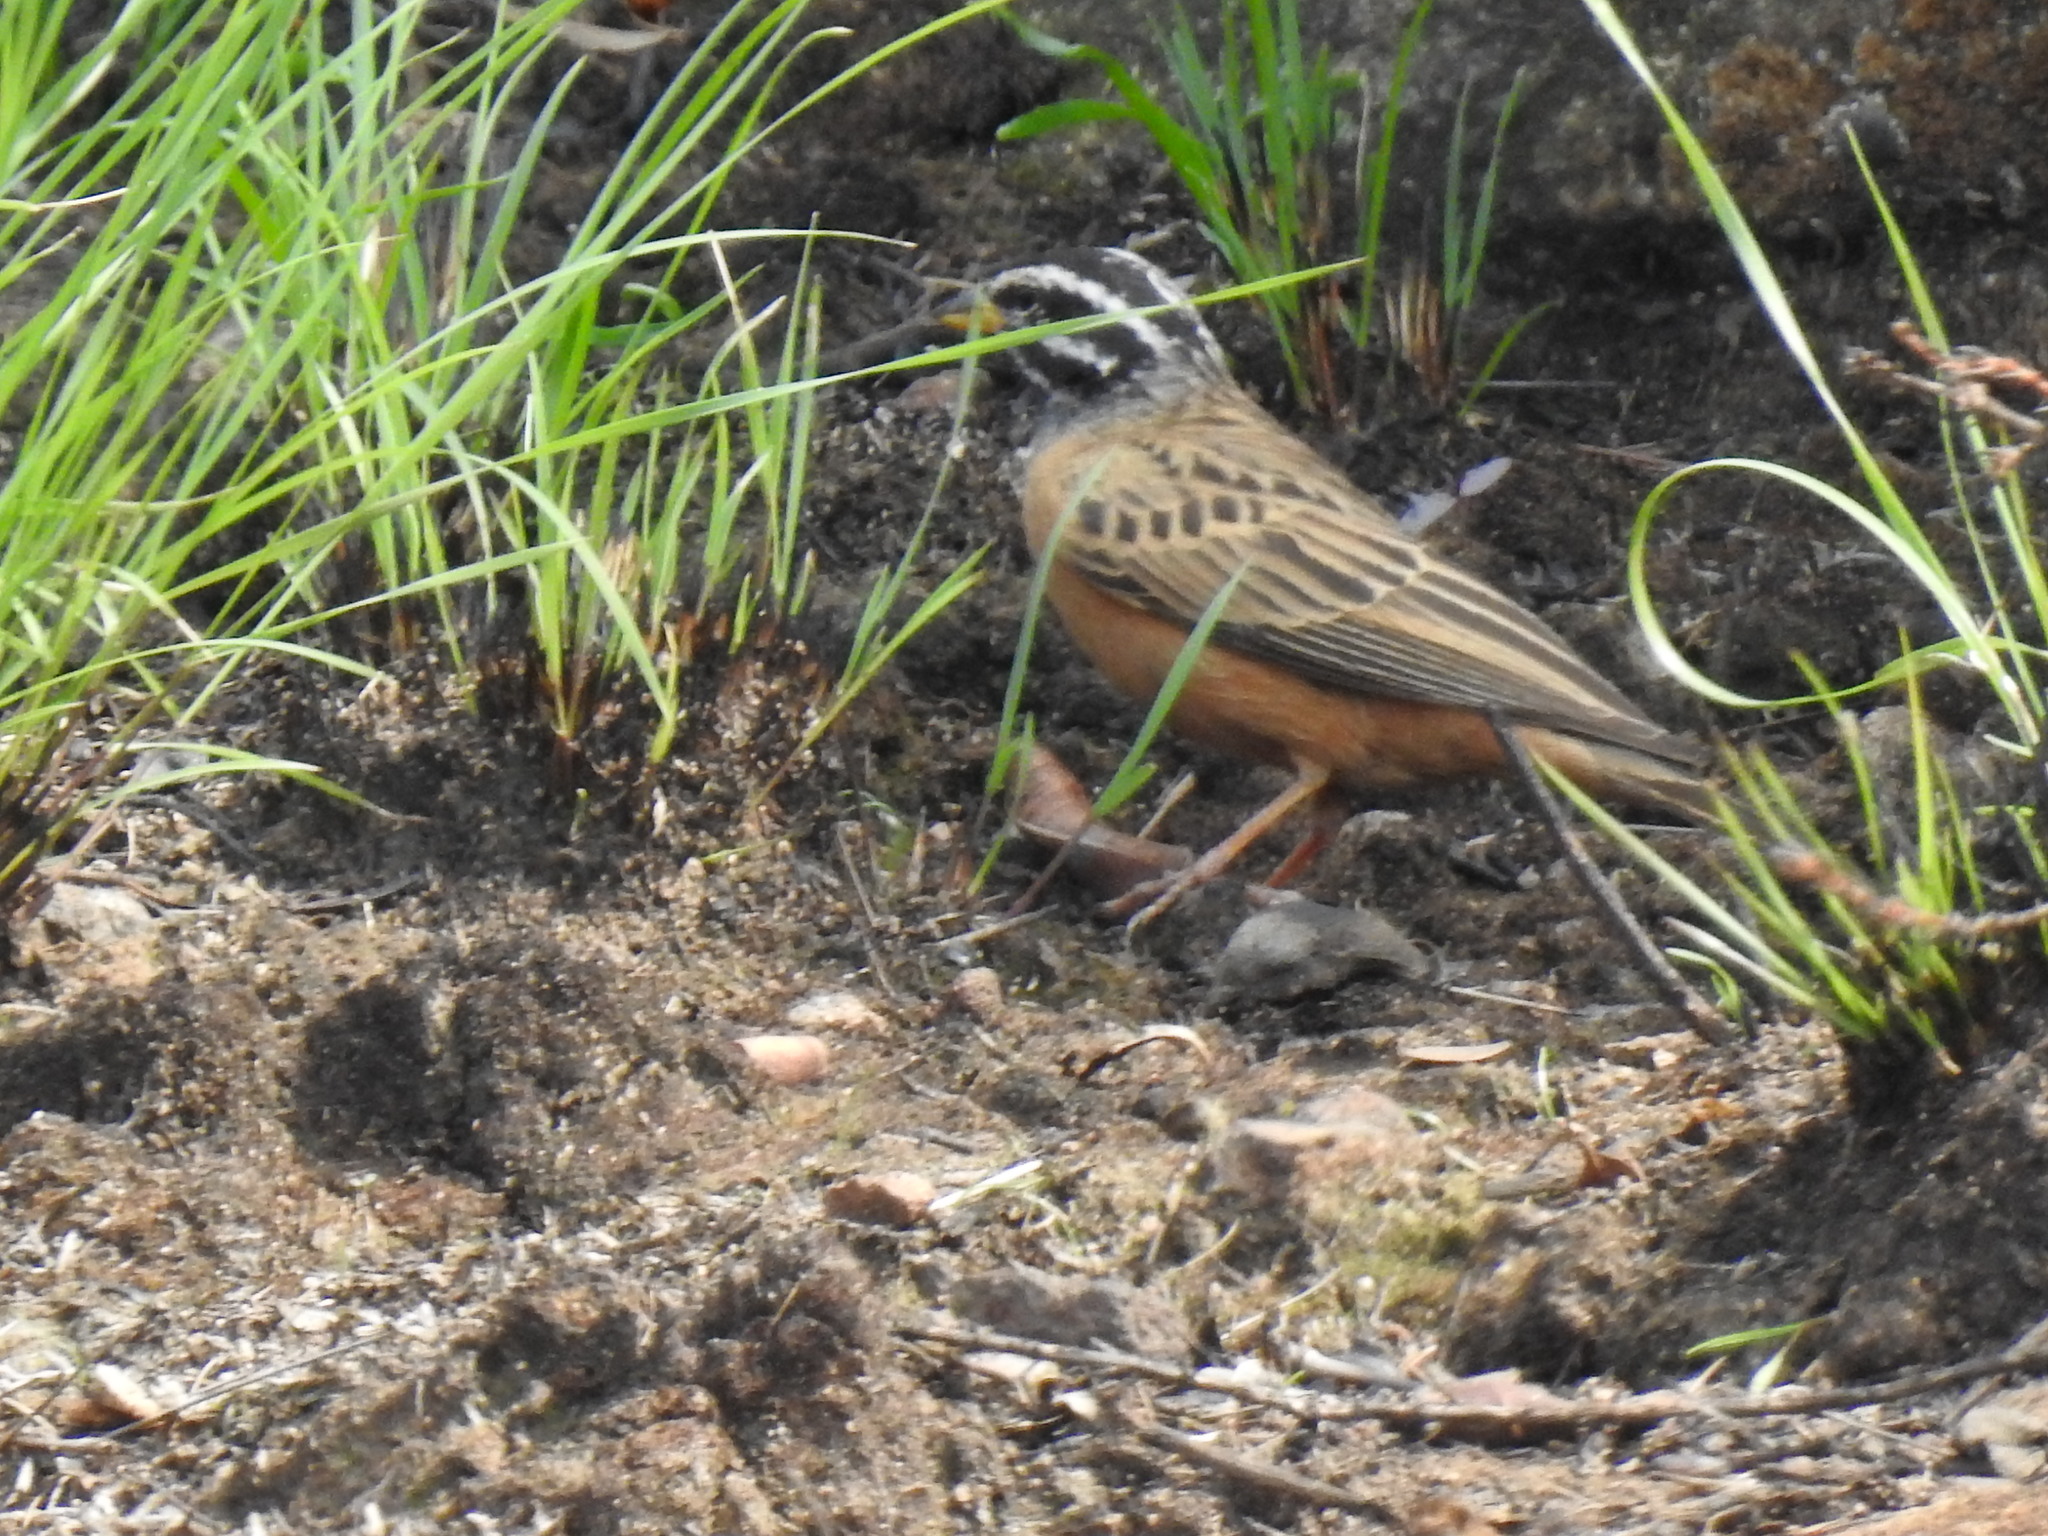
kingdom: Animalia
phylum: Chordata
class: Aves
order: Passeriformes
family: Emberizidae
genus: Emberiza
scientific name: Emberiza tahapisi
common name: Cinnamon-breasted bunting
